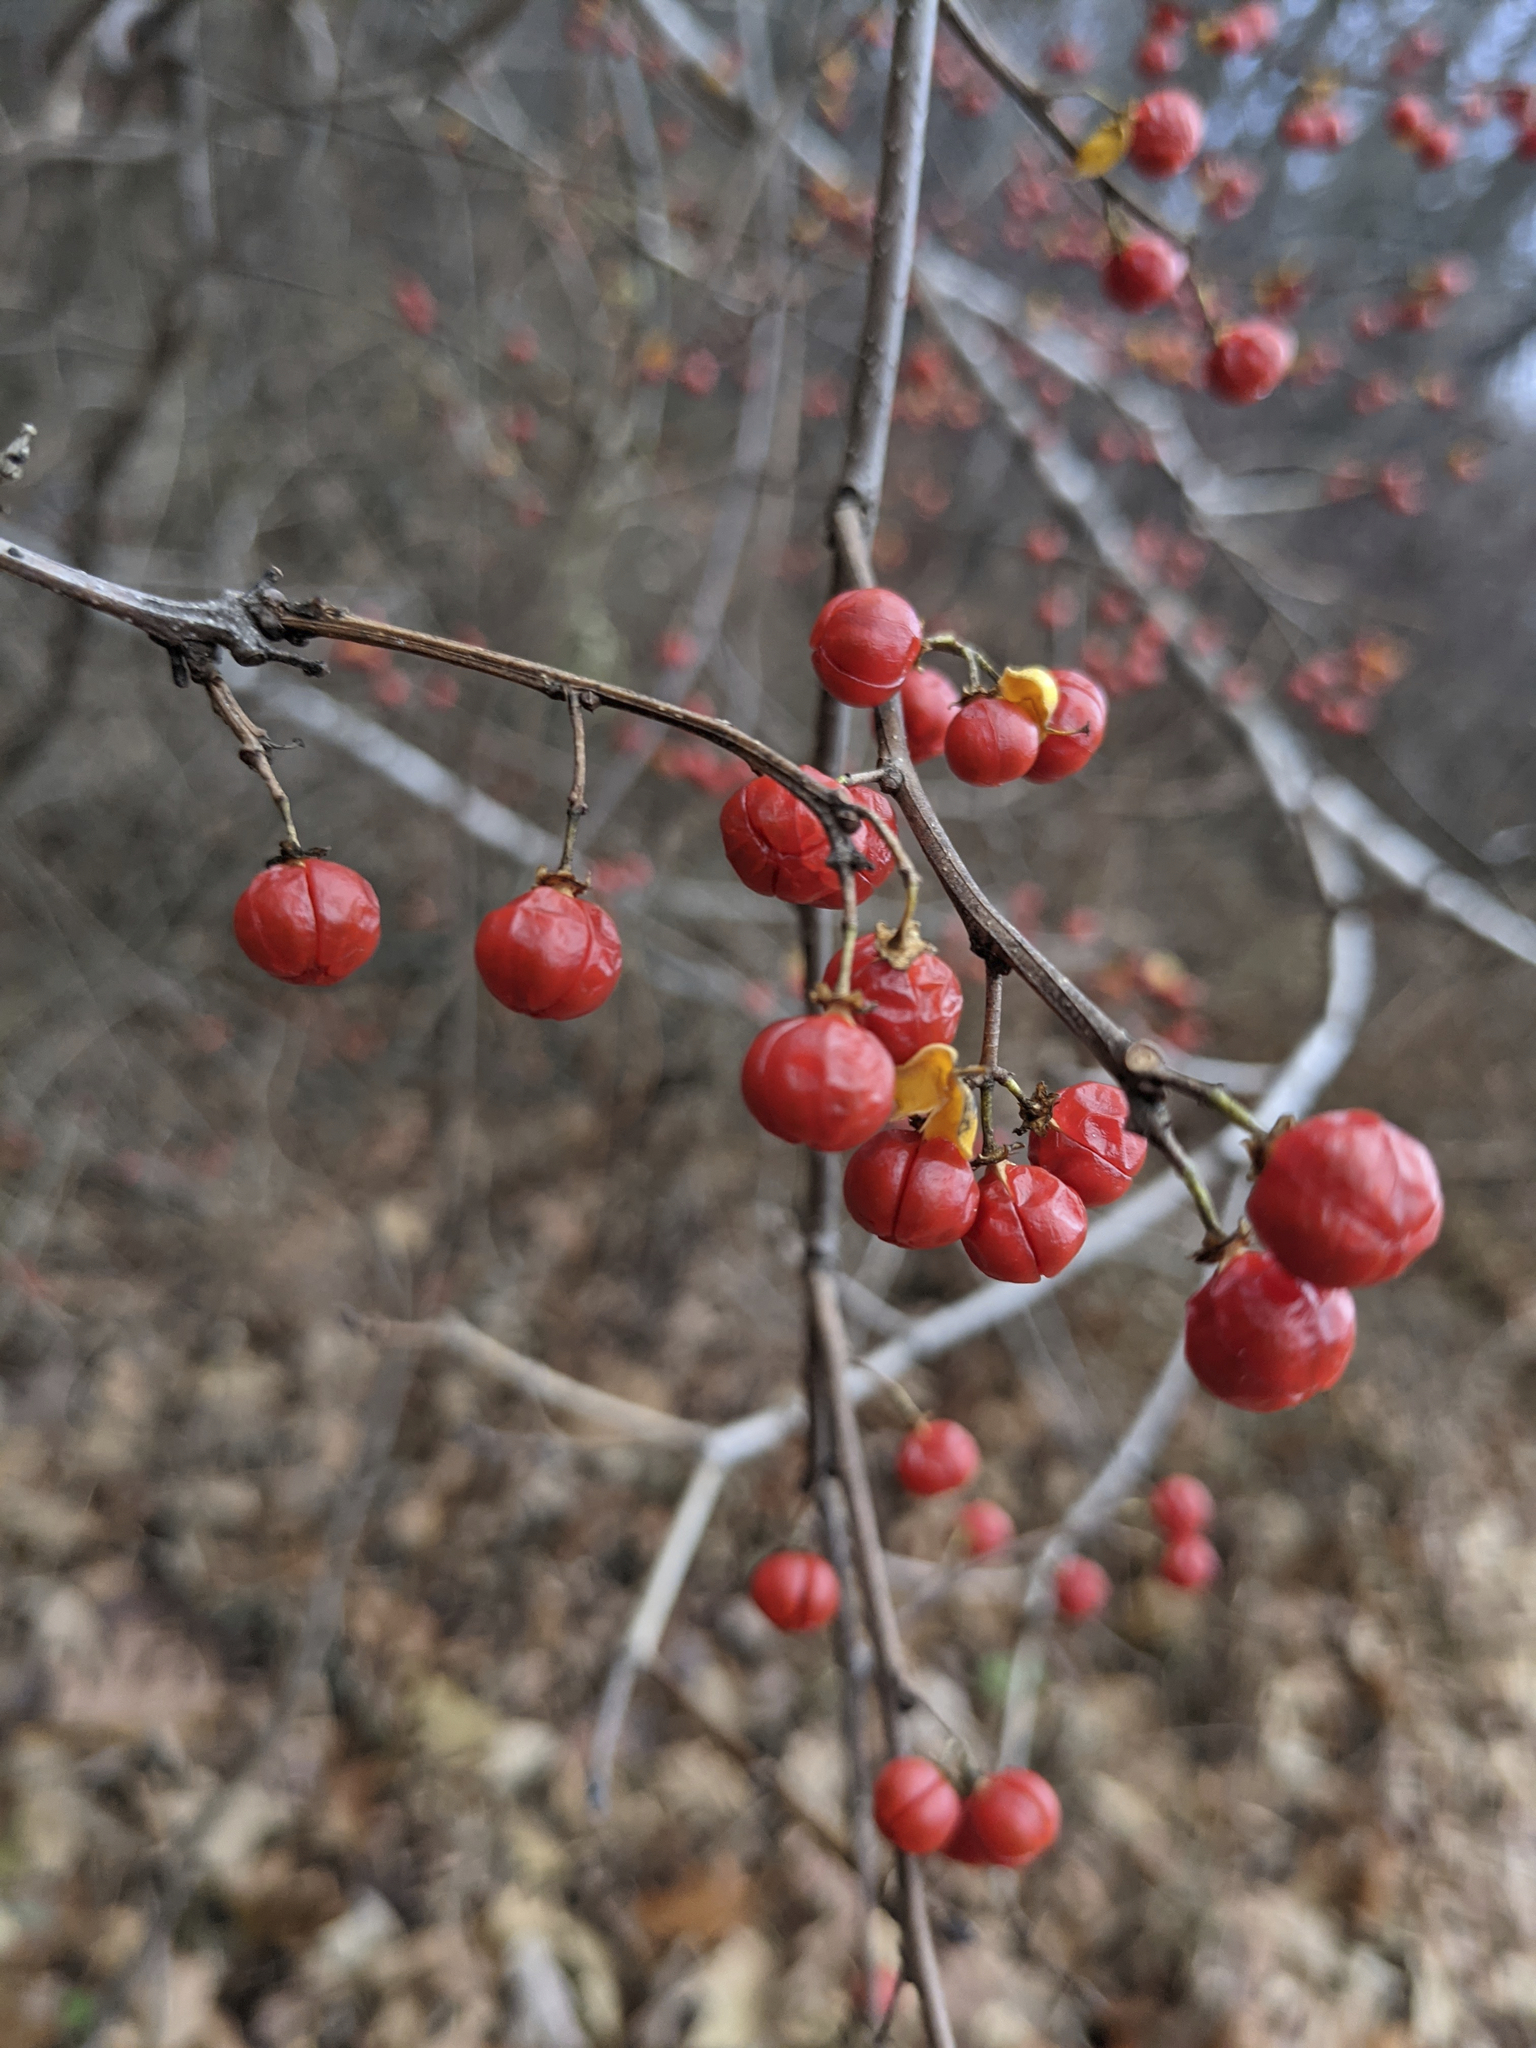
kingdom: Plantae
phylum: Tracheophyta
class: Magnoliopsida
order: Celastrales
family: Celastraceae
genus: Celastrus
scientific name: Celastrus orbiculatus
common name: Oriental bittersweet
